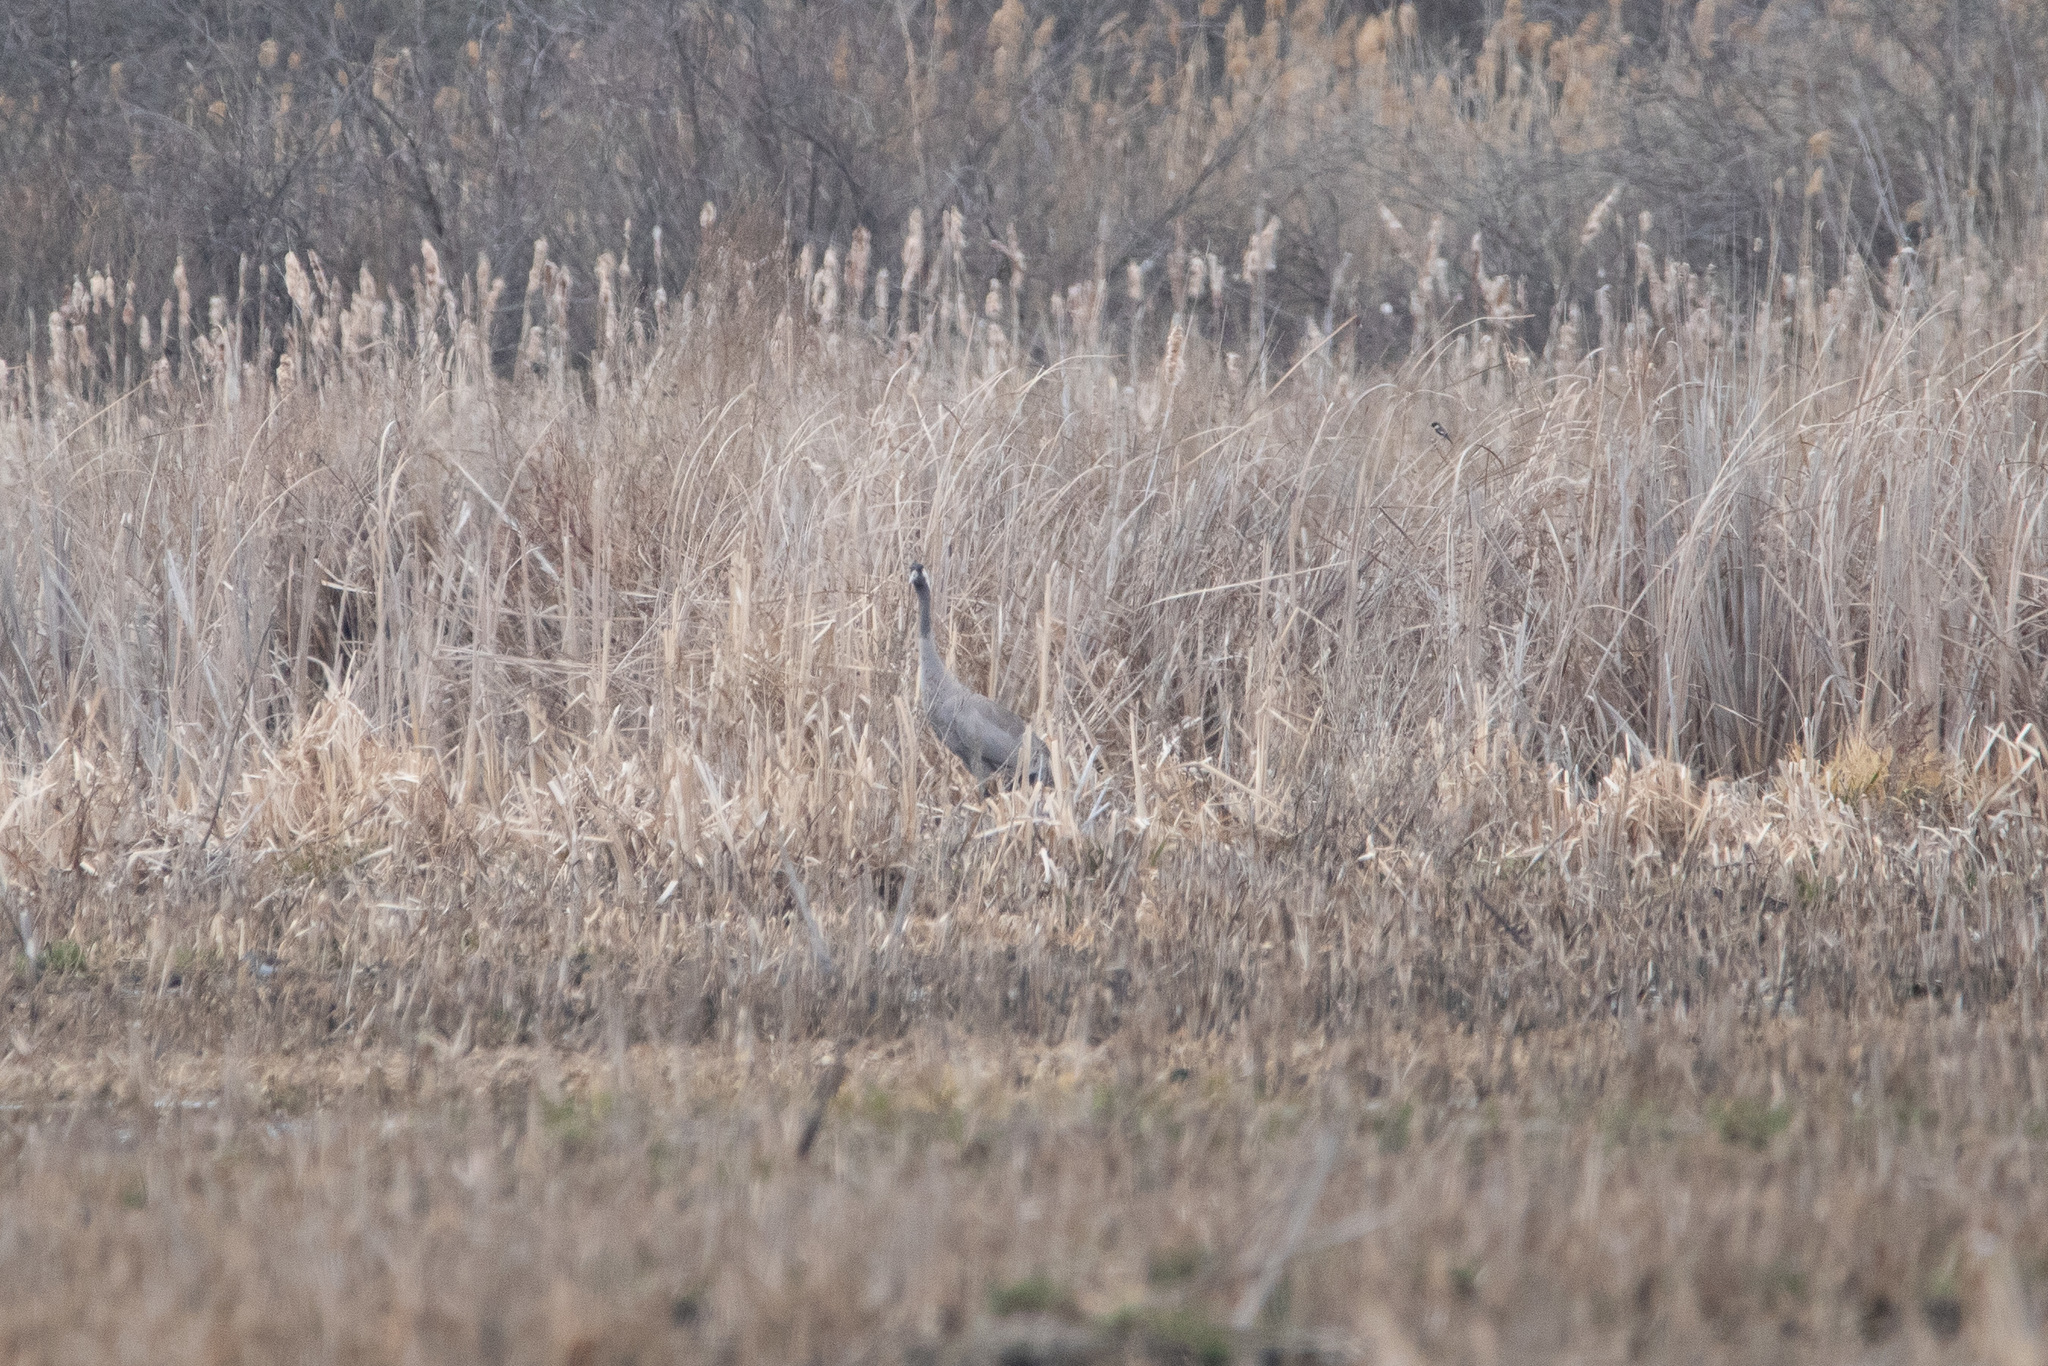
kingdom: Animalia
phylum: Chordata
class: Aves
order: Gruiformes
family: Gruidae
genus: Grus
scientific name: Grus grus
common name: Common crane
